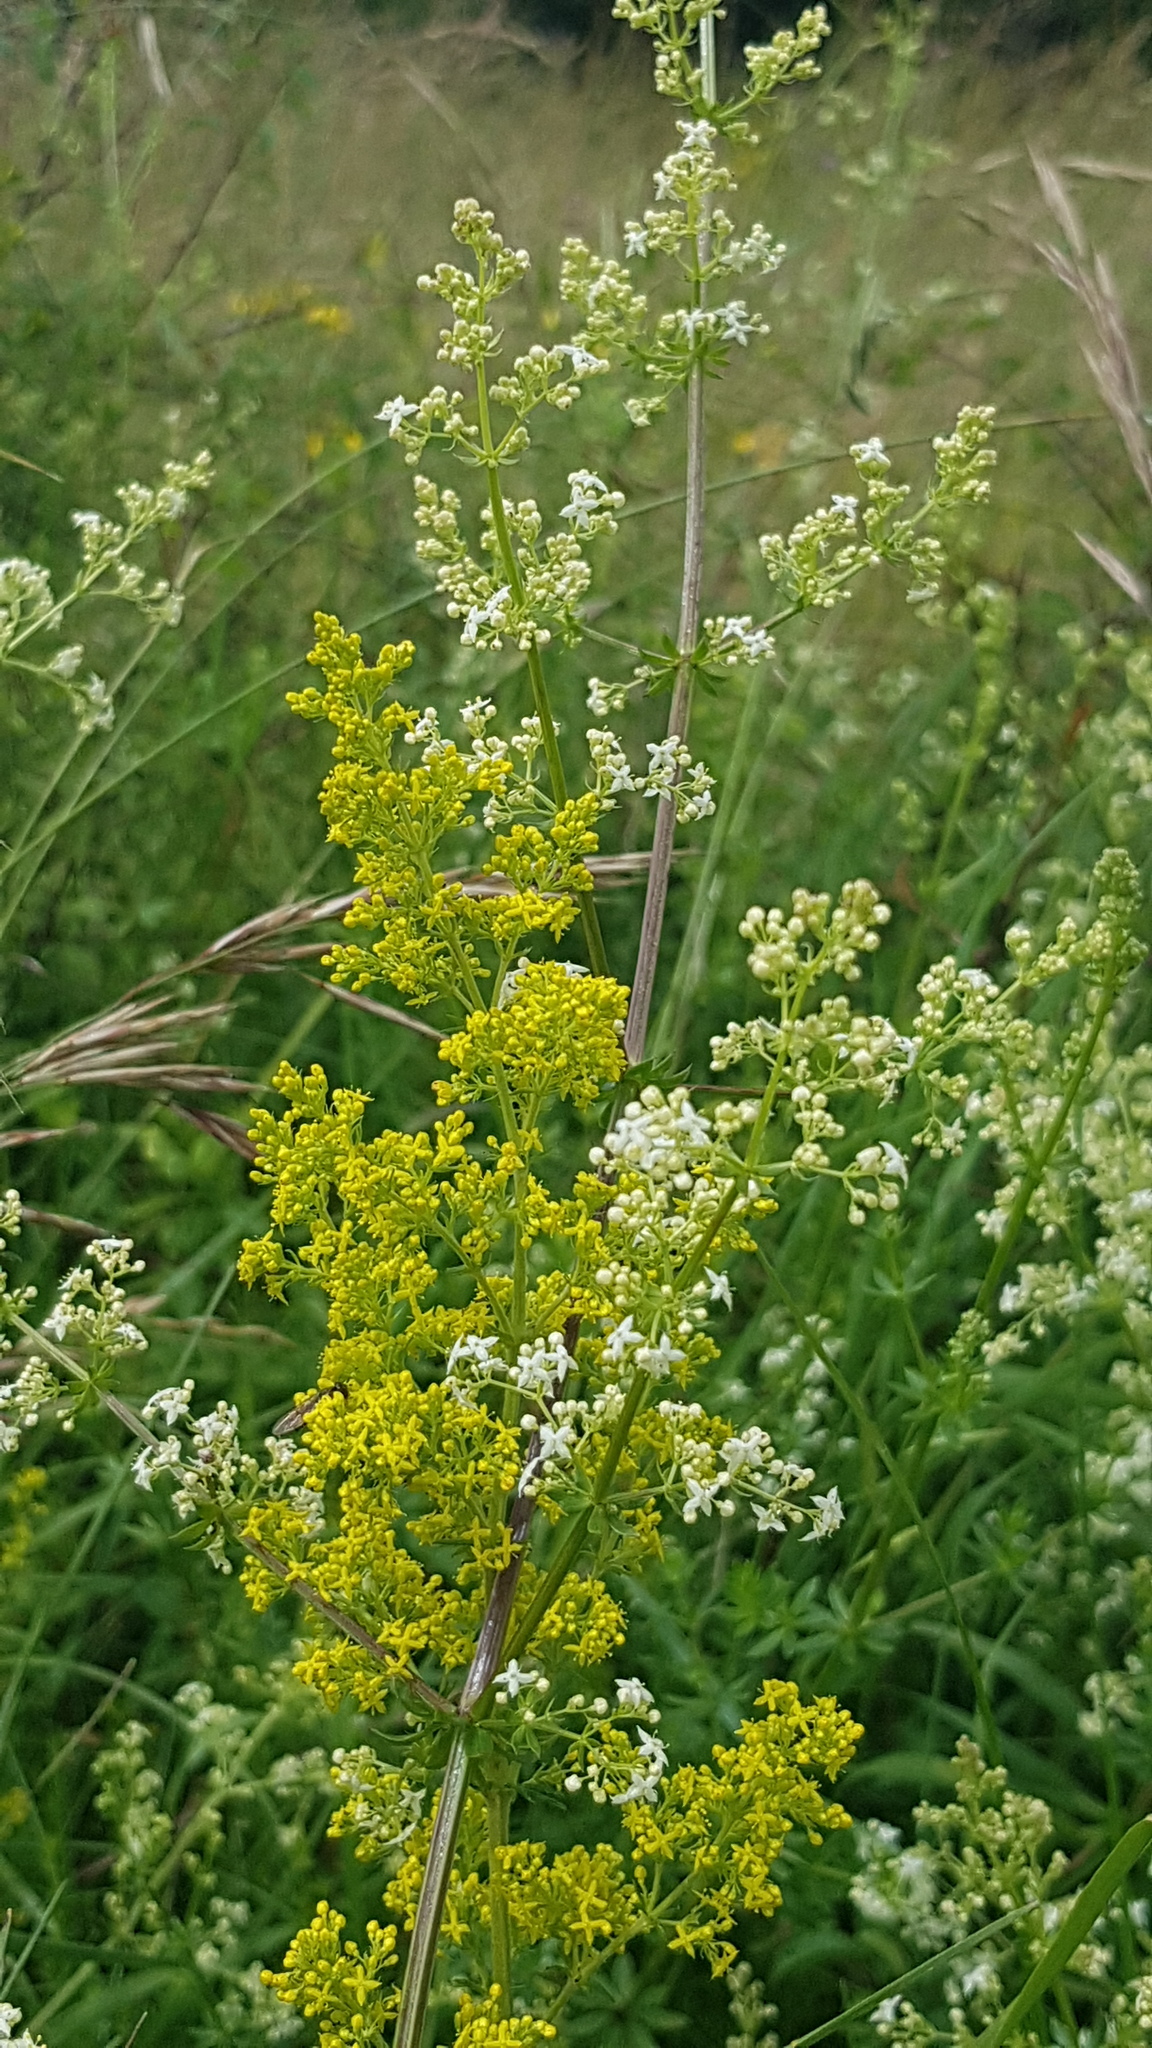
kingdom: Plantae
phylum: Tracheophyta
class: Magnoliopsida
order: Gentianales
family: Rubiaceae
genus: Galium
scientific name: Galium verum
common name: Lady's bedstraw
